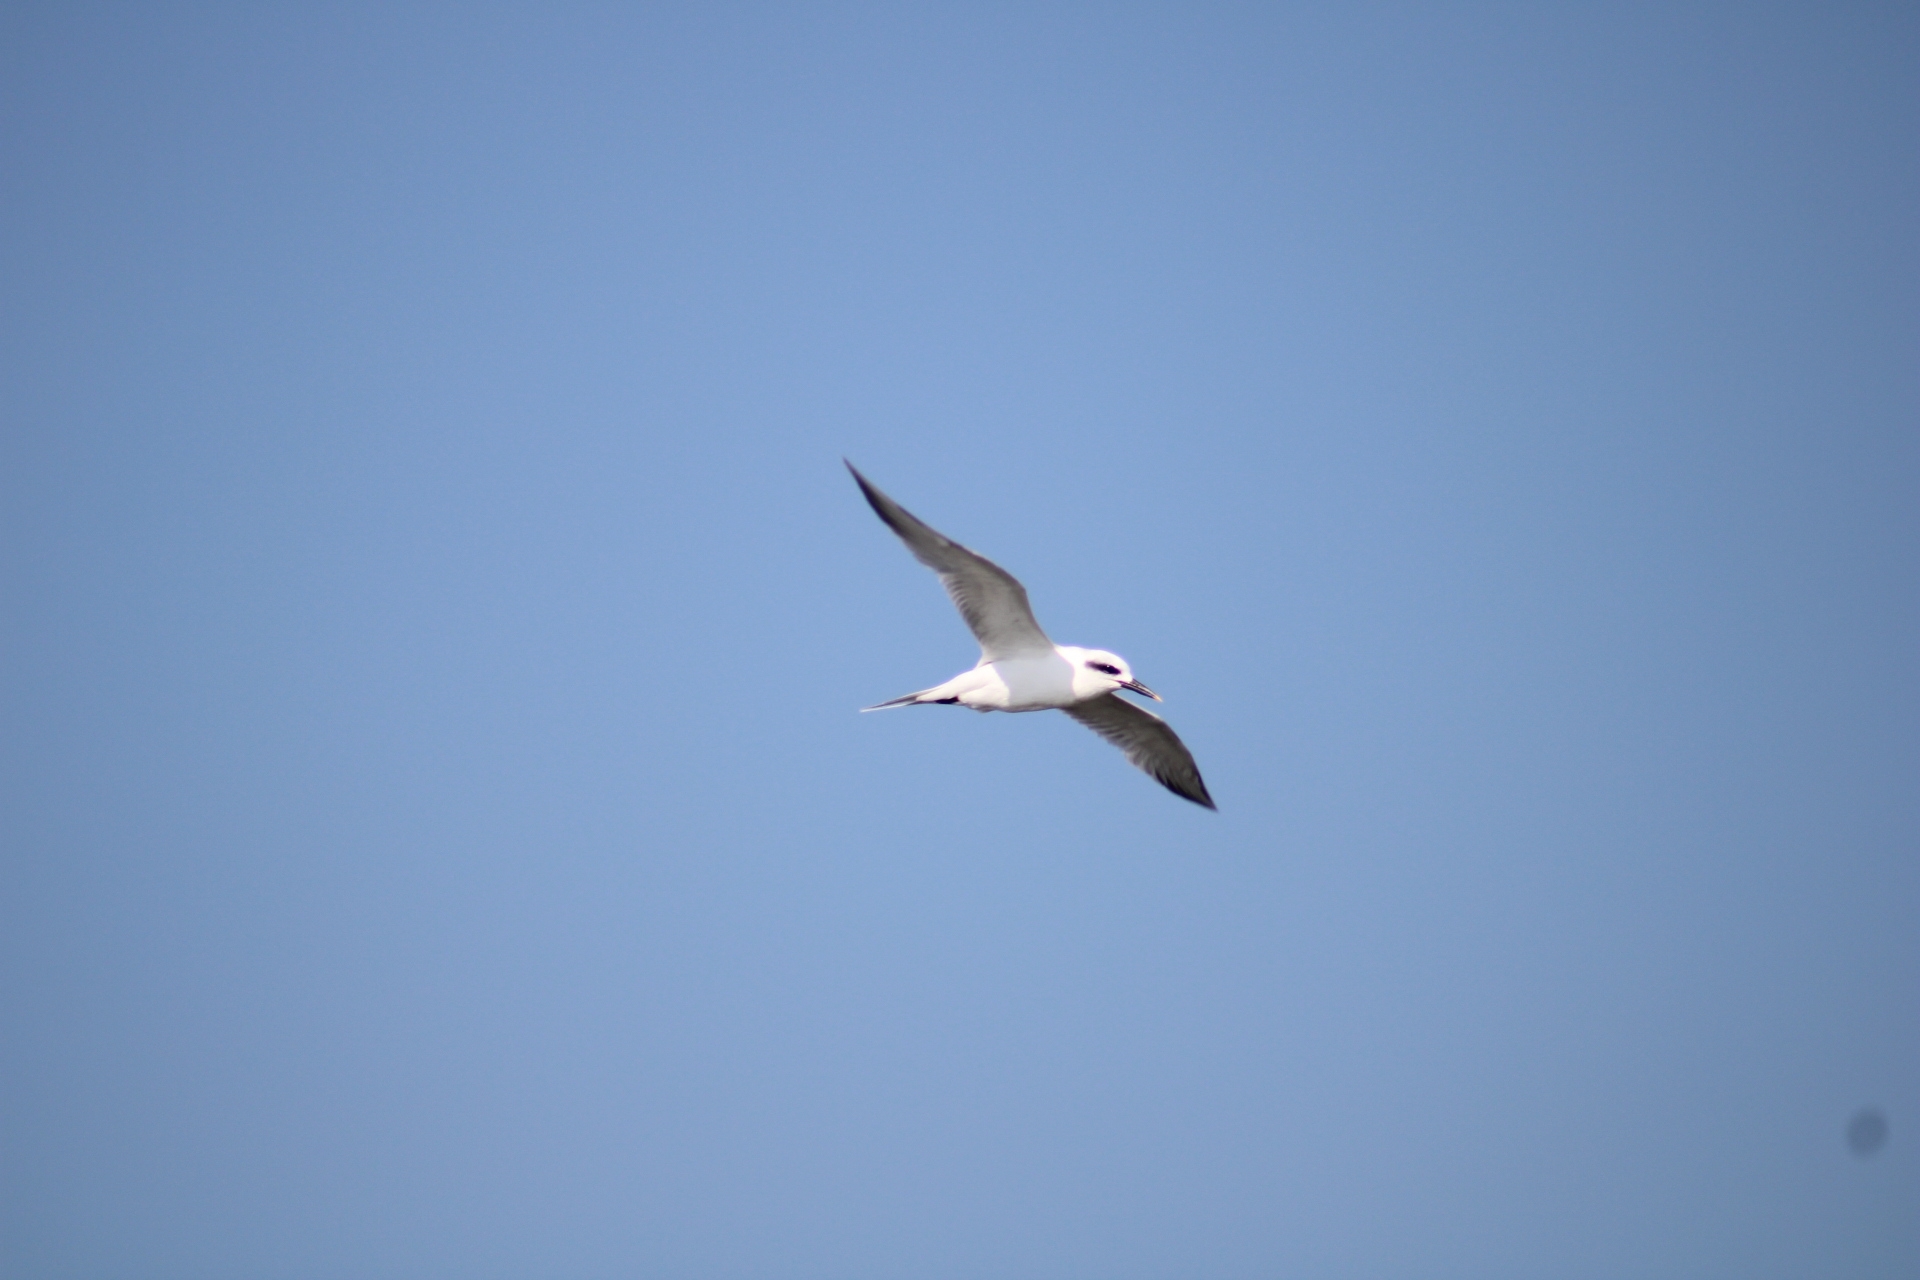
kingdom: Animalia
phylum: Chordata
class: Aves
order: Charadriiformes
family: Laridae
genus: Sterna
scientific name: Sterna trudeaui
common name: Snowy-crowned tern
